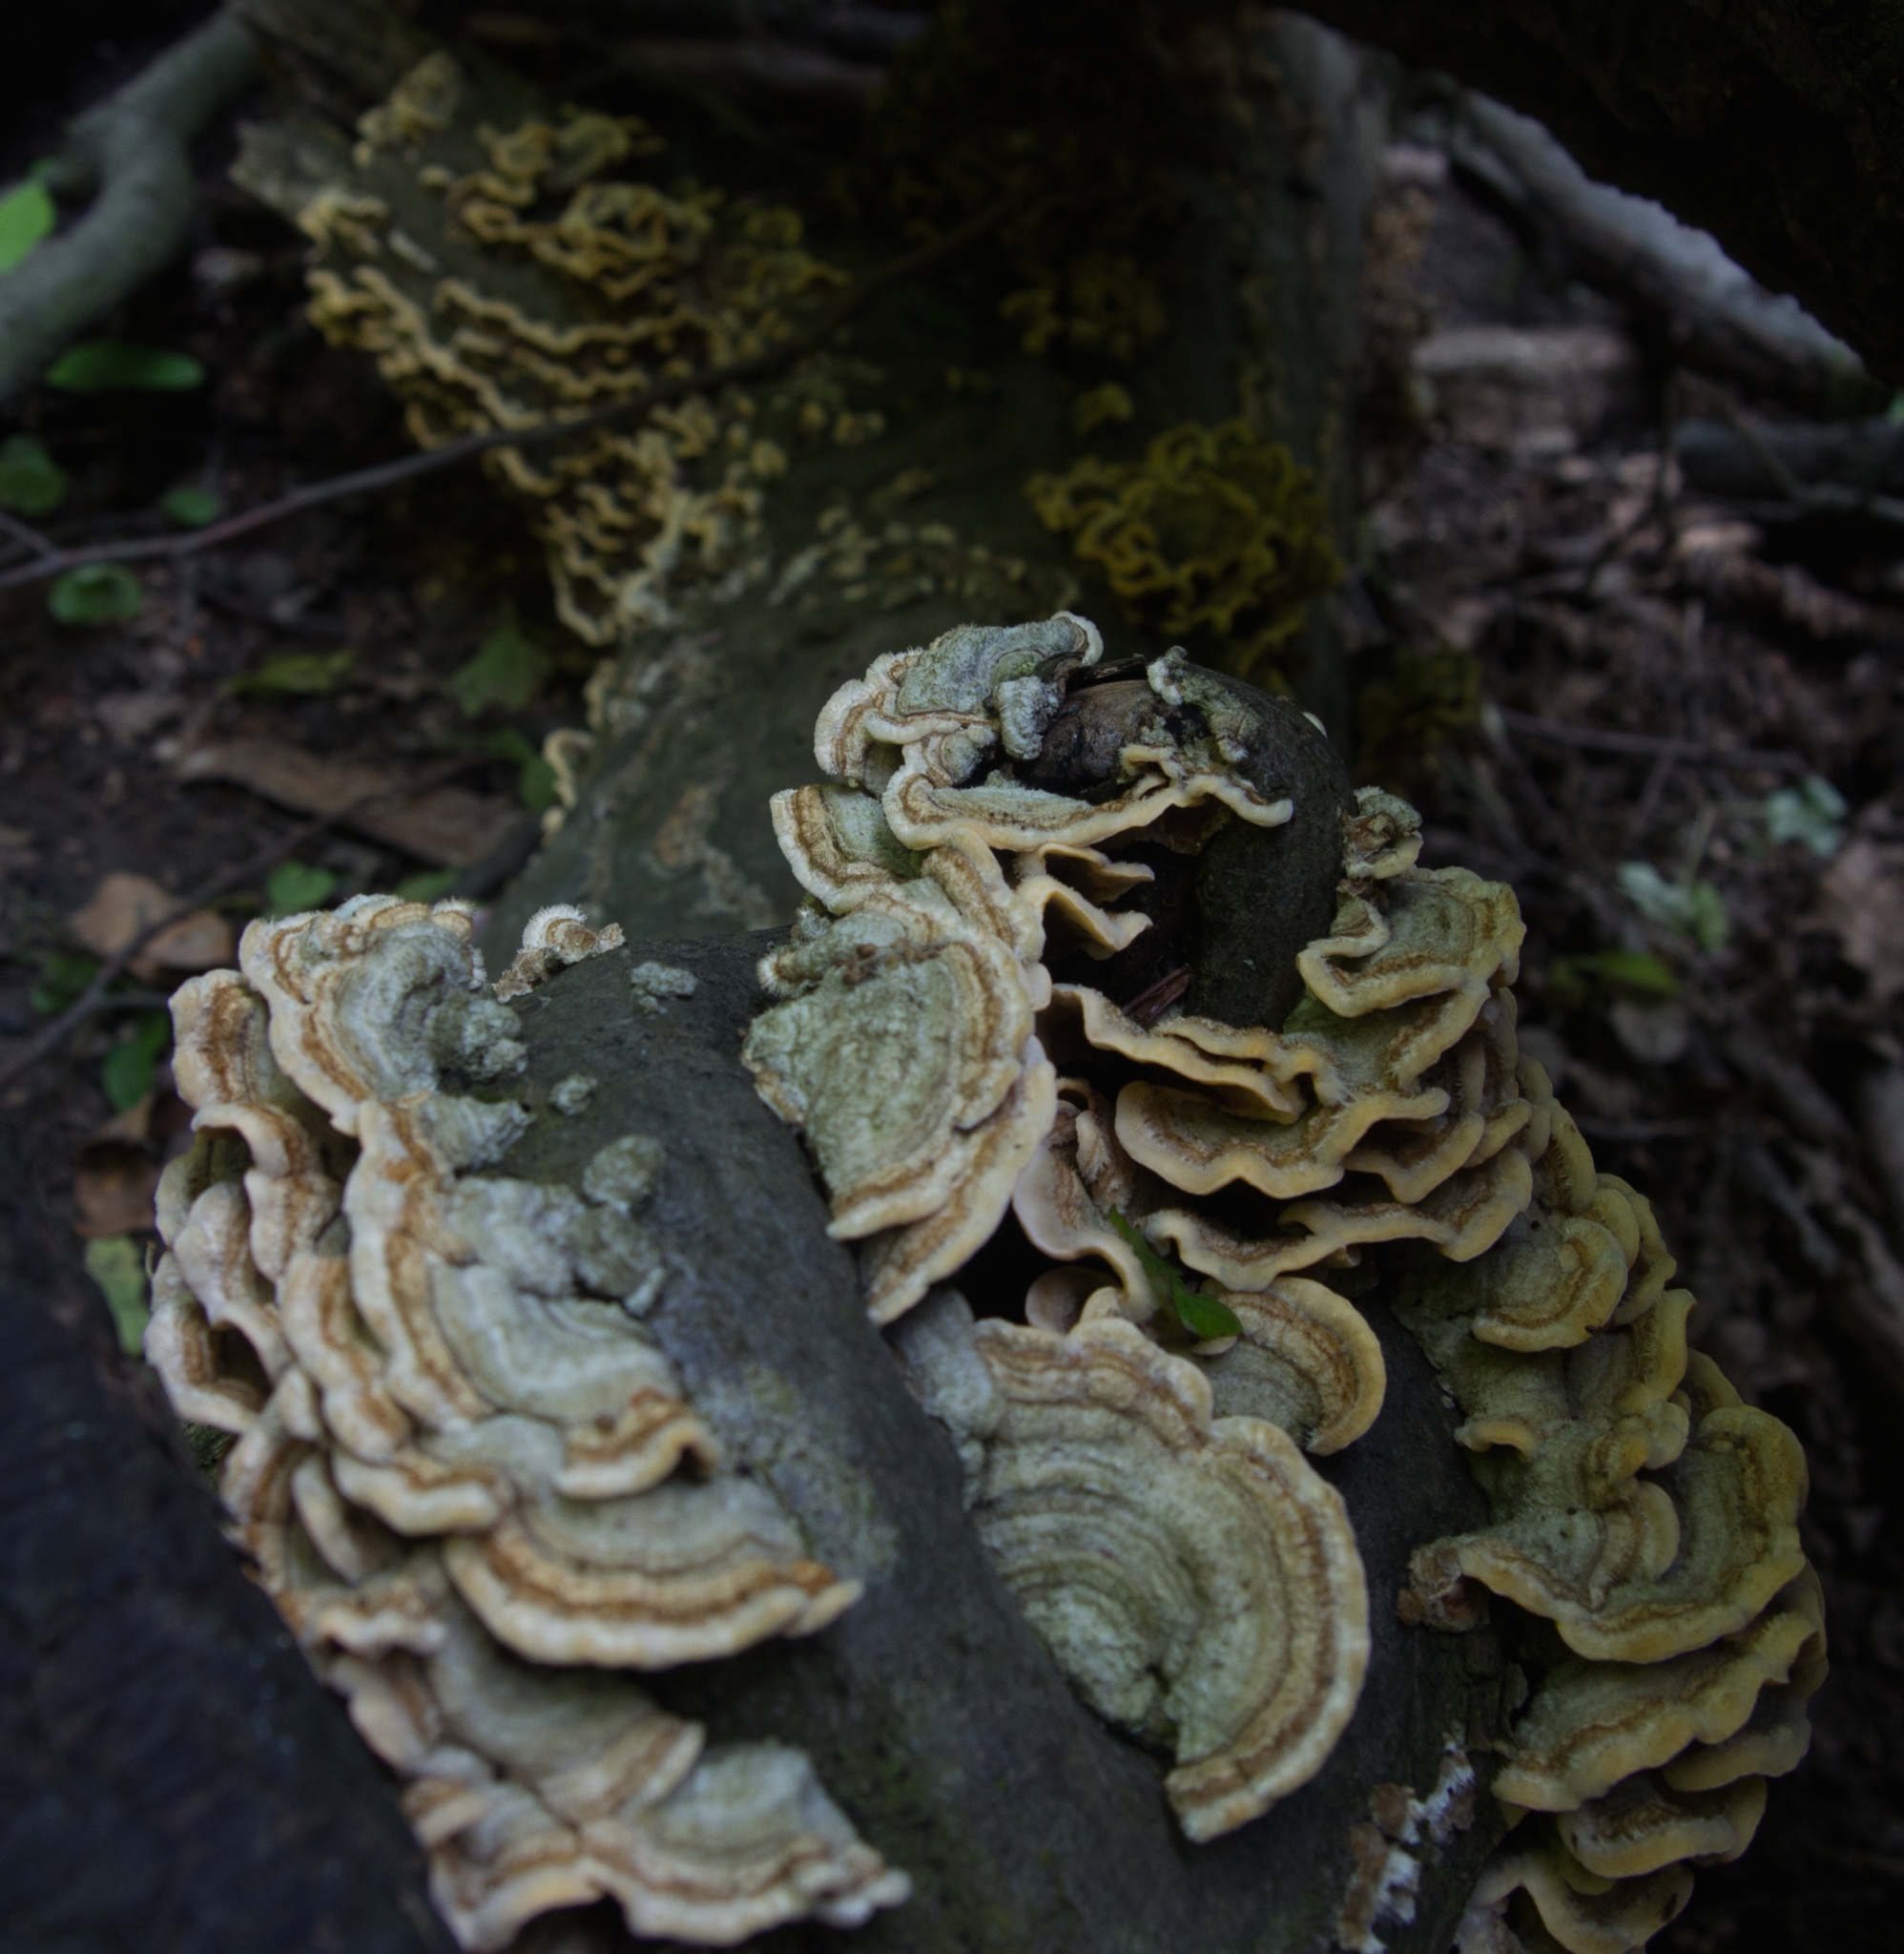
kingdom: Fungi
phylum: Basidiomycota
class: Agaricomycetes
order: Russulales
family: Stereaceae
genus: Stereum
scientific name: Stereum hirsutum
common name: Hairy curtain crust
